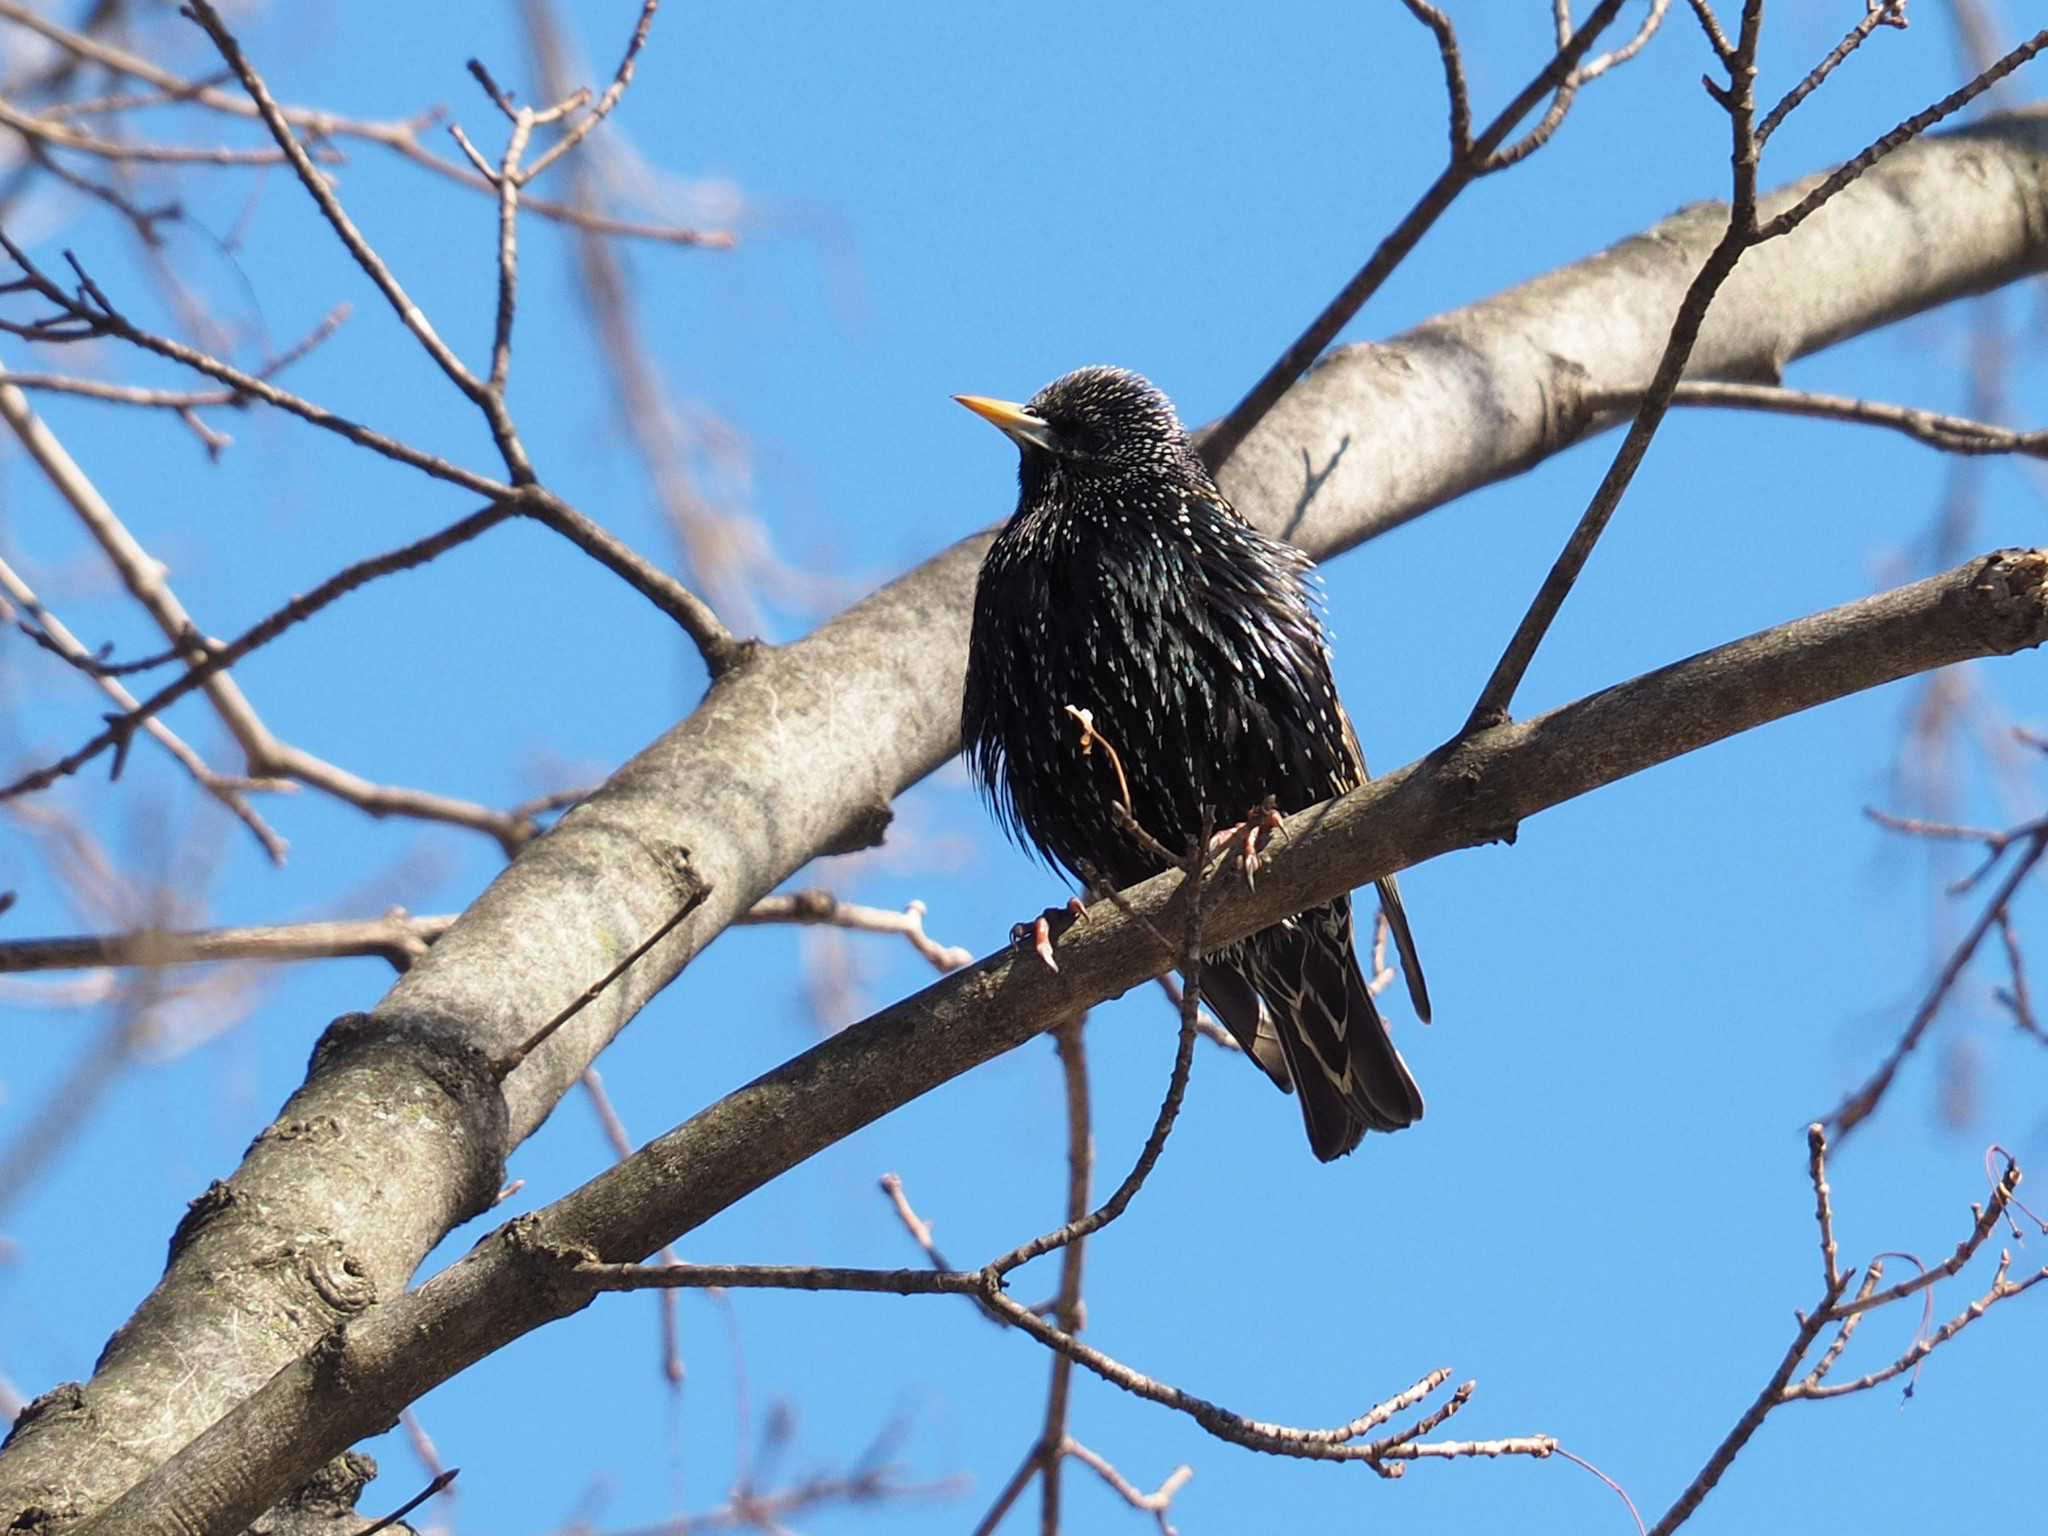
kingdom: Animalia
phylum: Chordata
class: Aves
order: Passeriformes
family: Sturnidae
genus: Sturnus
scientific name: Sturnus vulgaris
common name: Common starling
